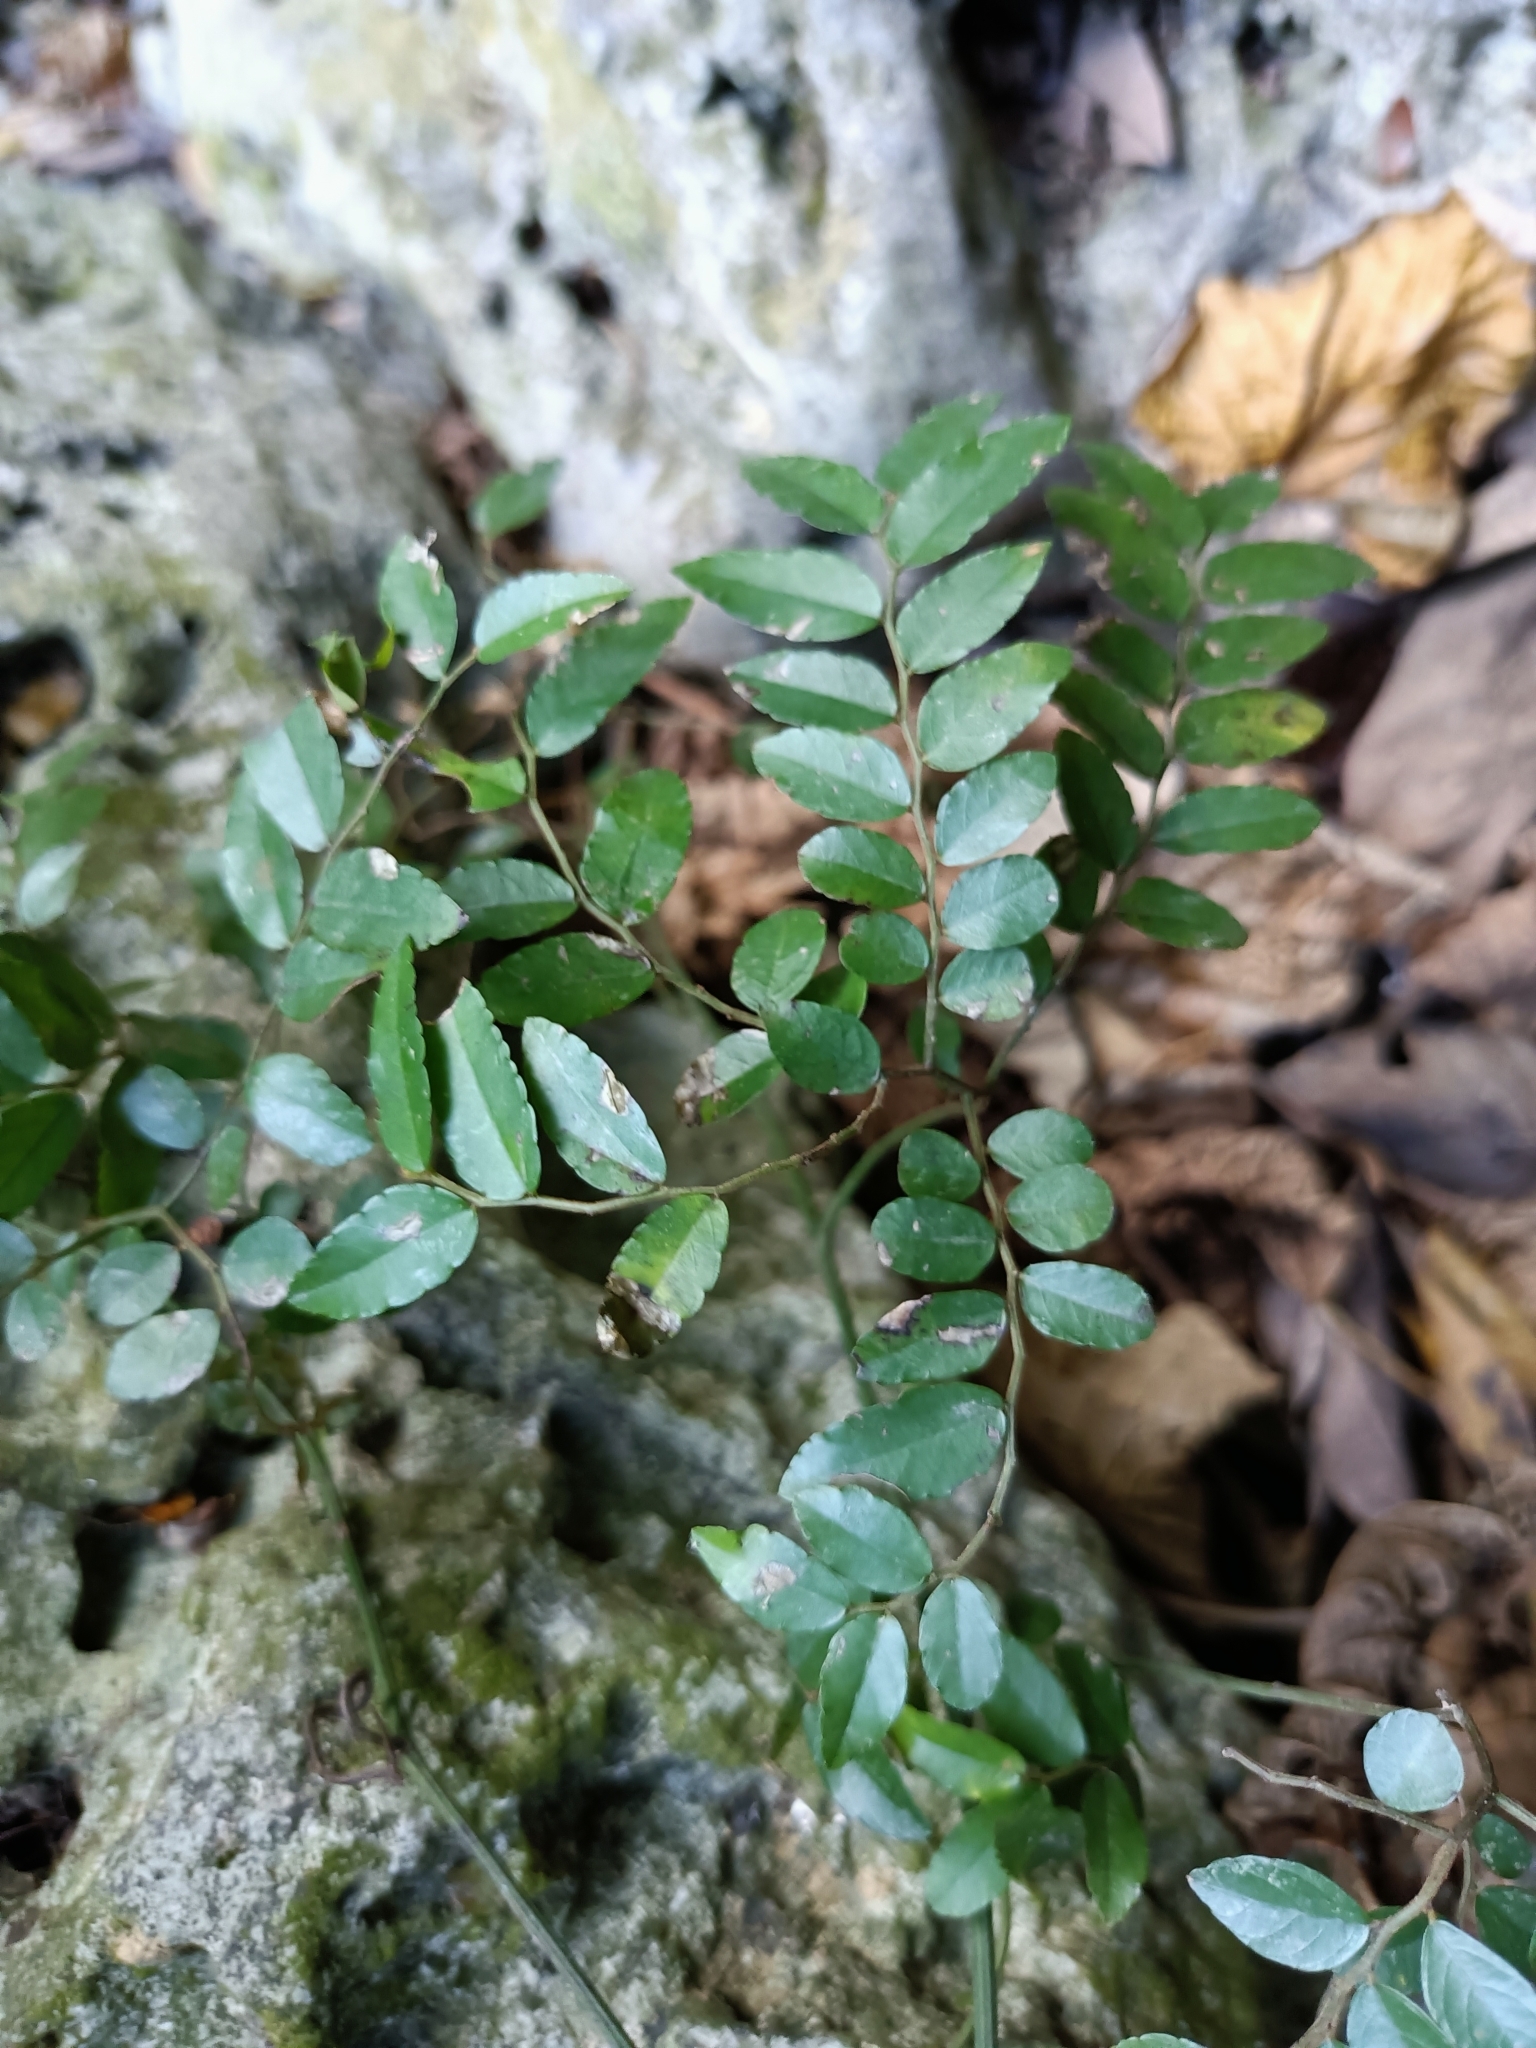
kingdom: Plantae
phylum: Tracheophyta
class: Magnoliopsida
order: Rosales
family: Rhamnaceae
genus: Ventilago
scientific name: Ventilago elegans
